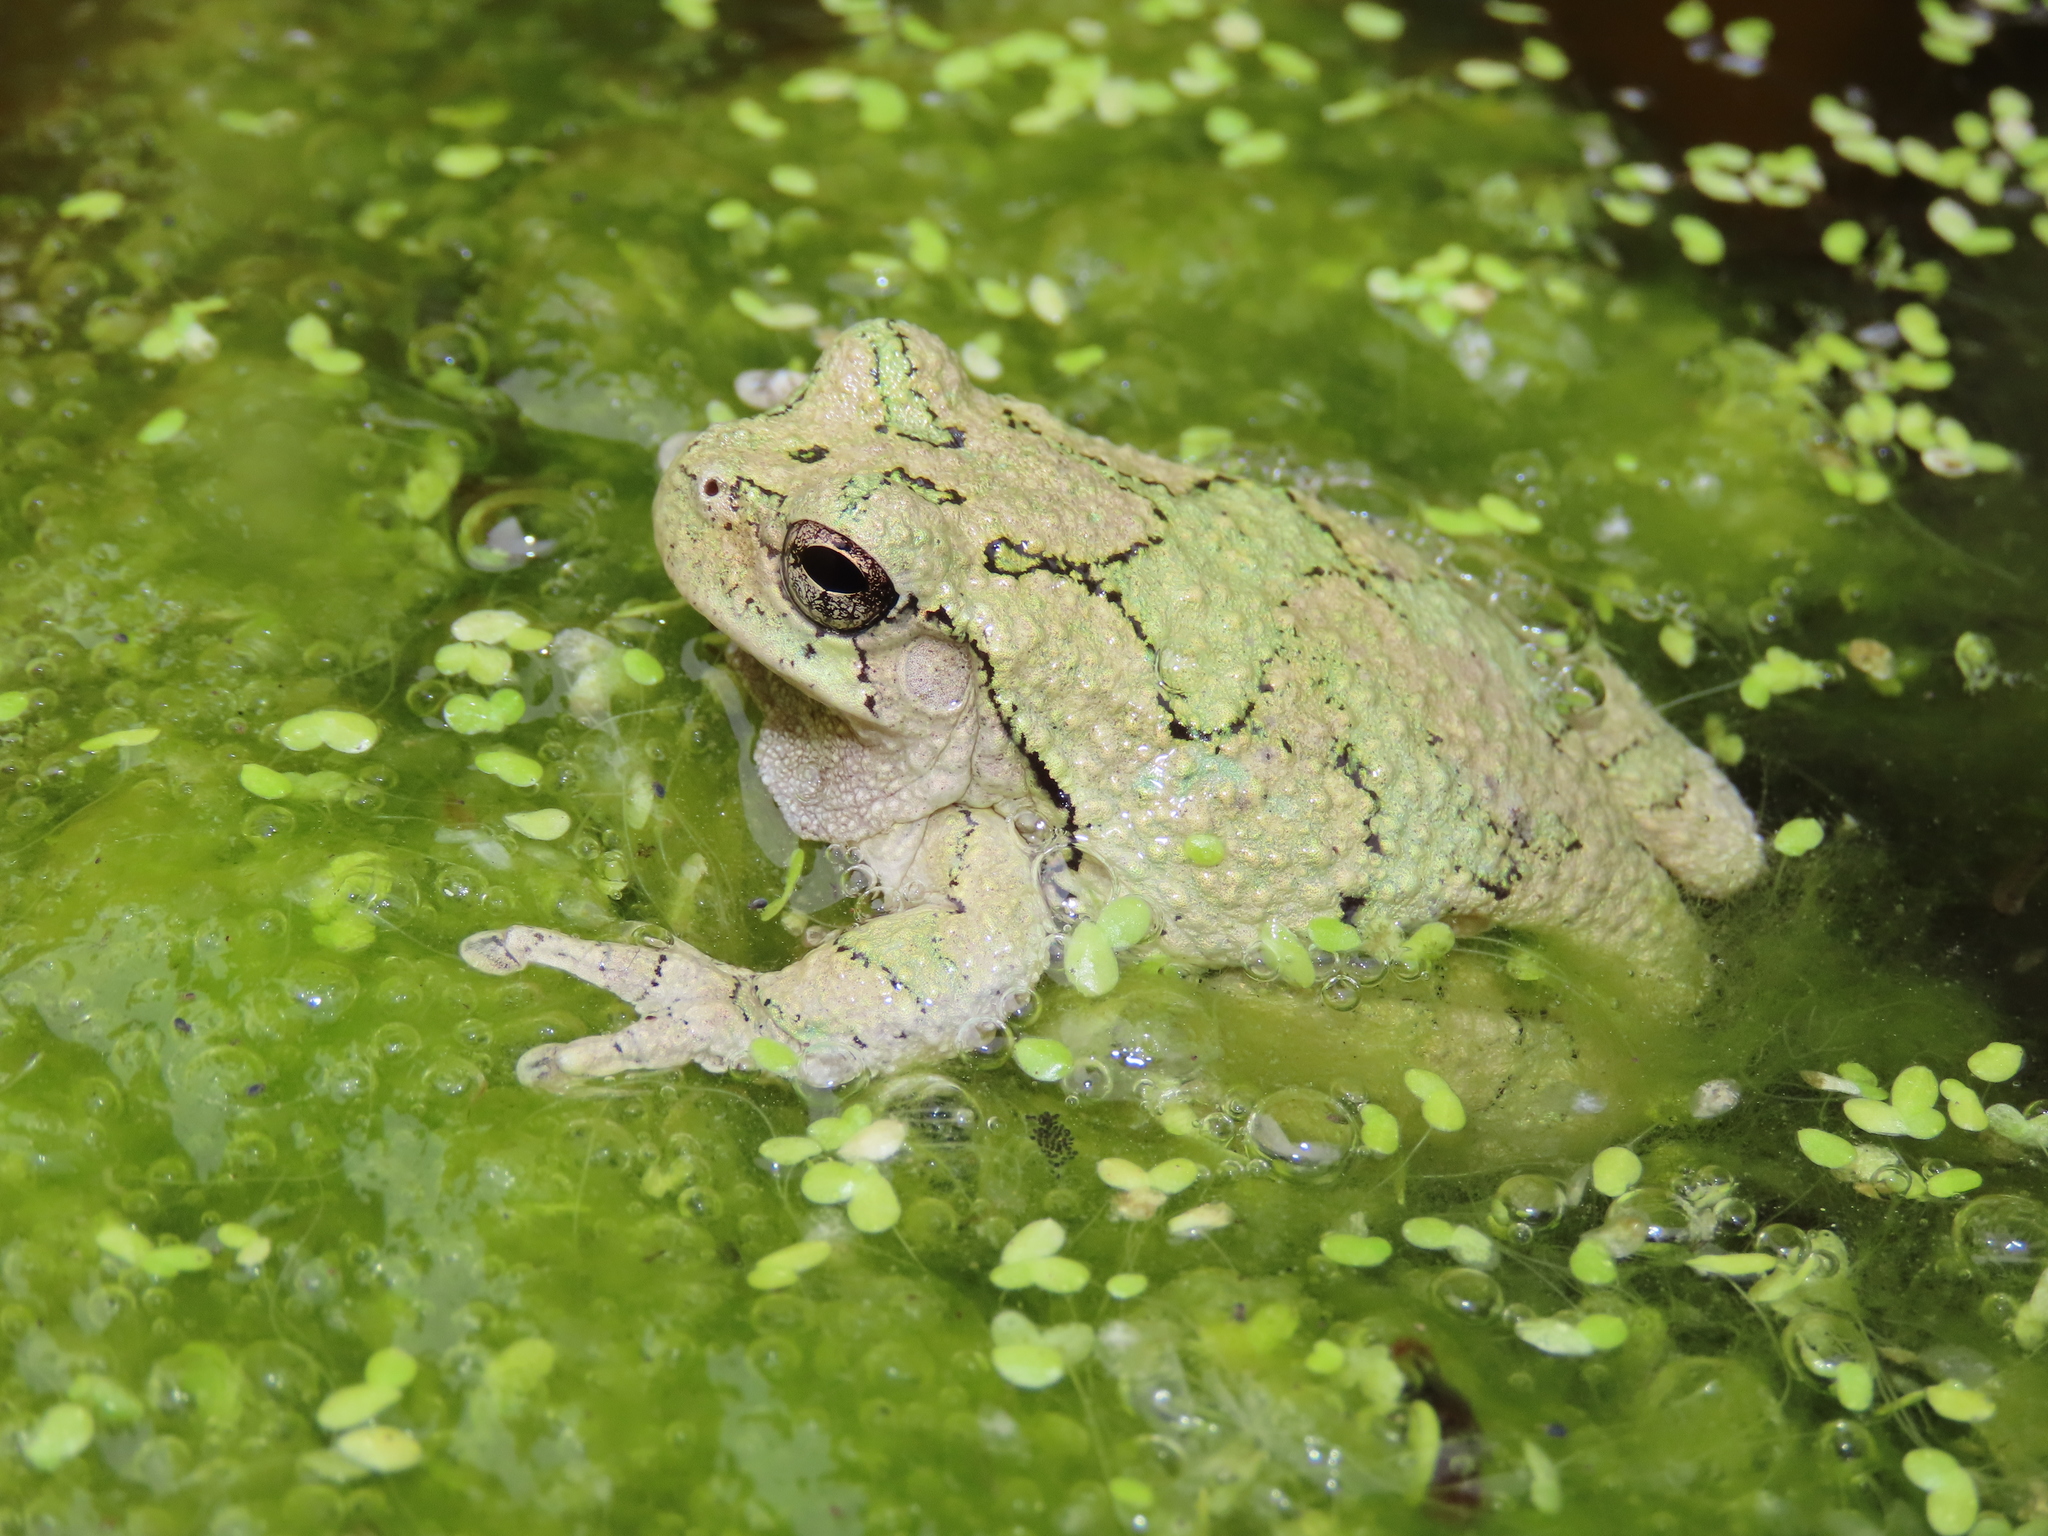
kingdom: Animalia
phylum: Chordata
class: Amphibia
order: Anura
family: Hylidae
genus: Dryophytes
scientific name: Dryophytes versicolor
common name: Gray treefrog
